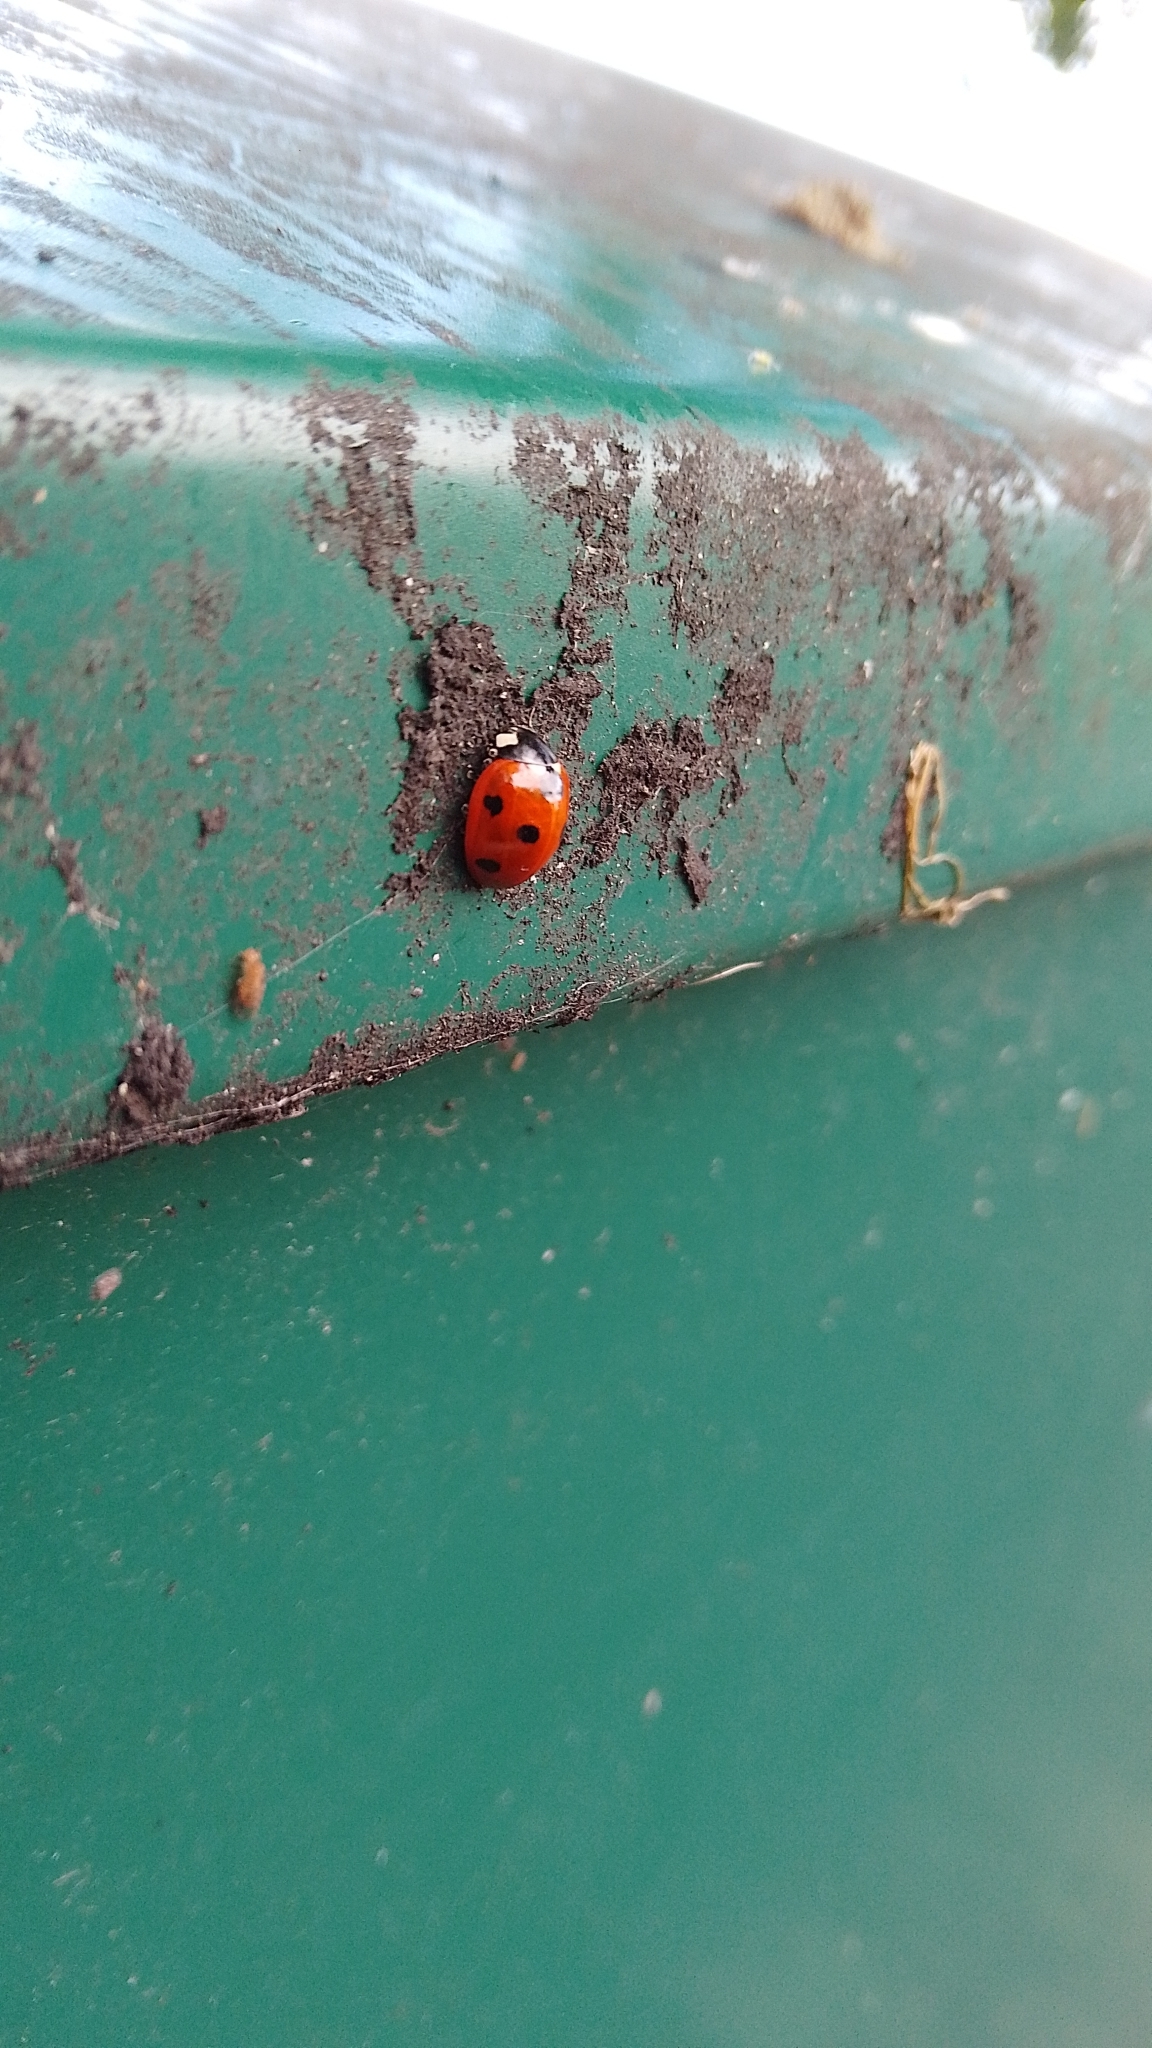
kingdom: Animalia
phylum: Arthropoda
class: Insecta
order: Coleoptera
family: Coccinellidae
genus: Coccinella
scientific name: Coccinella septempunctata
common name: Sevenspotted lady beetle
